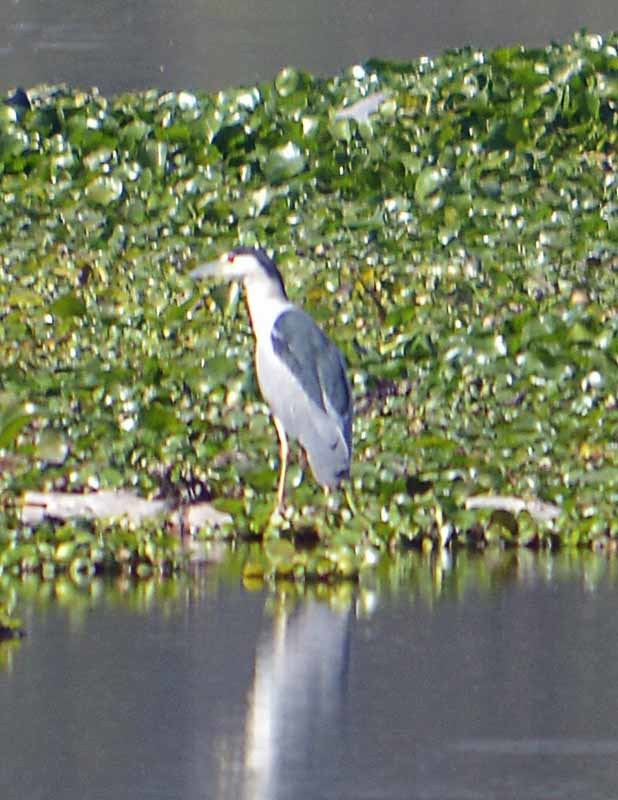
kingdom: Animalia
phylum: Chordata
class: Aves
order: Pelecaniformes
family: Ardeidae
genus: Nycticorax
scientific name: Nycticorax nycticorax
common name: Black-crowned night heron
